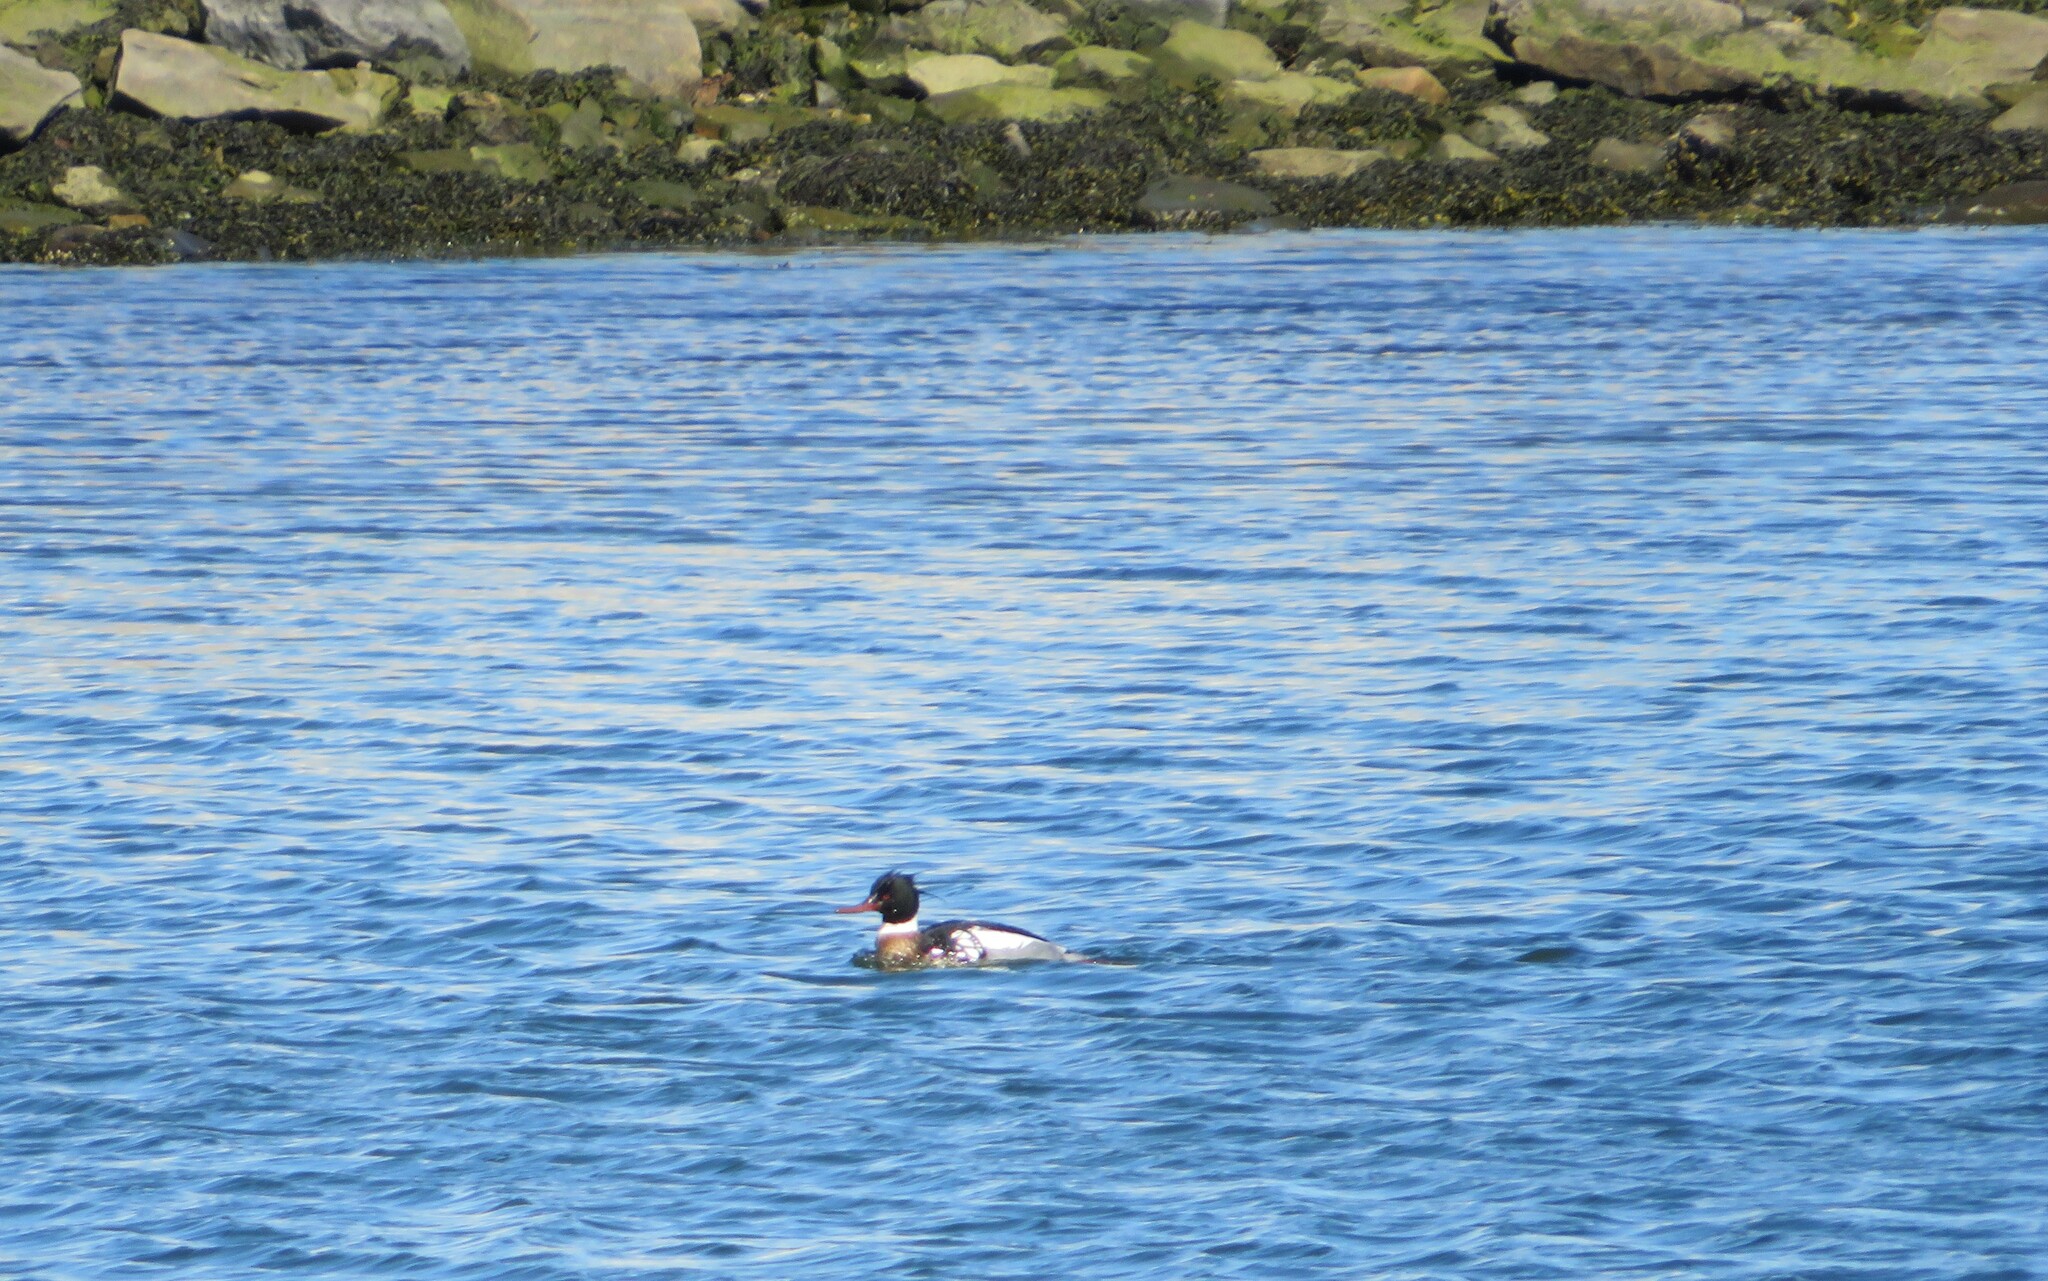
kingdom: Animalia
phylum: Chordata
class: Aves
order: Anseriformes
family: Anatidae
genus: Mergus
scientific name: Mergus serrator
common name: Red-breasted merganser
